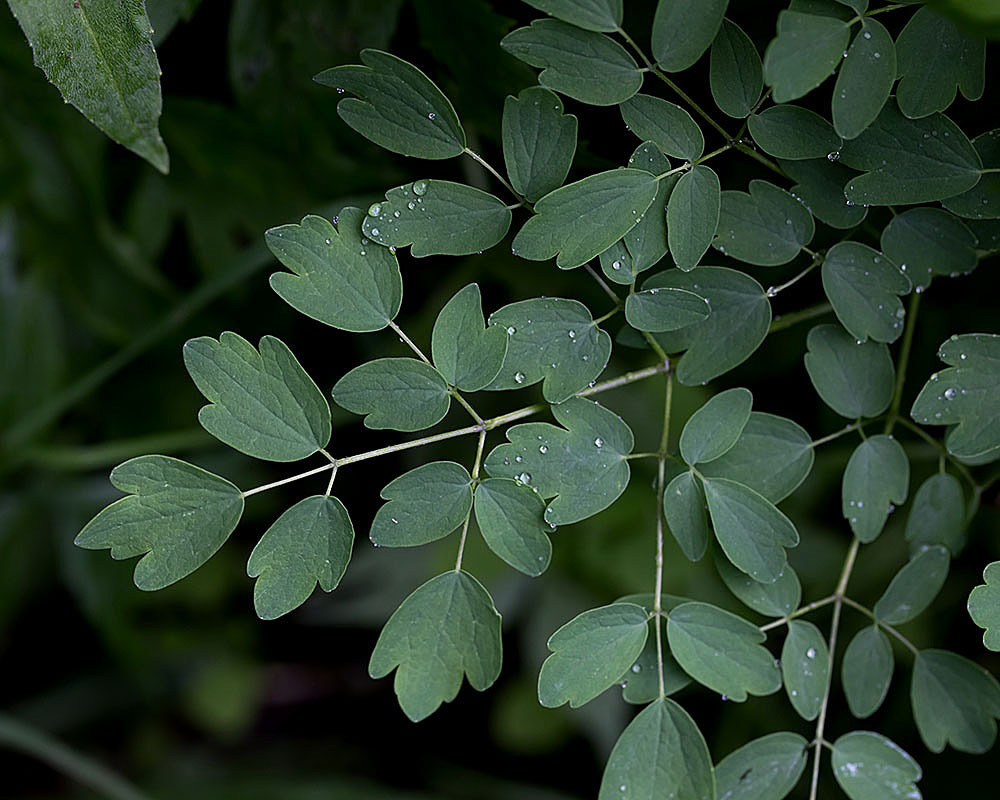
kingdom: Plantae
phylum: Tracheophyta
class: Magnoliopsida
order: Ranunculales
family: Ranunculaceae
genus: Thalictrum
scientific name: Thalictrum pubescens
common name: King-of-the-meadow
